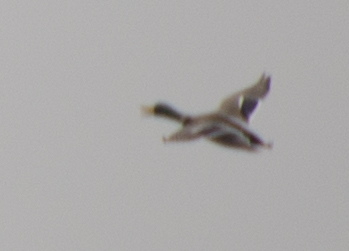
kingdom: Animalia
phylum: Chordata
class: Aves
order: Anseriformes
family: Anatidae
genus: Anas
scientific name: Anas platyrhynchos
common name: Mallard
